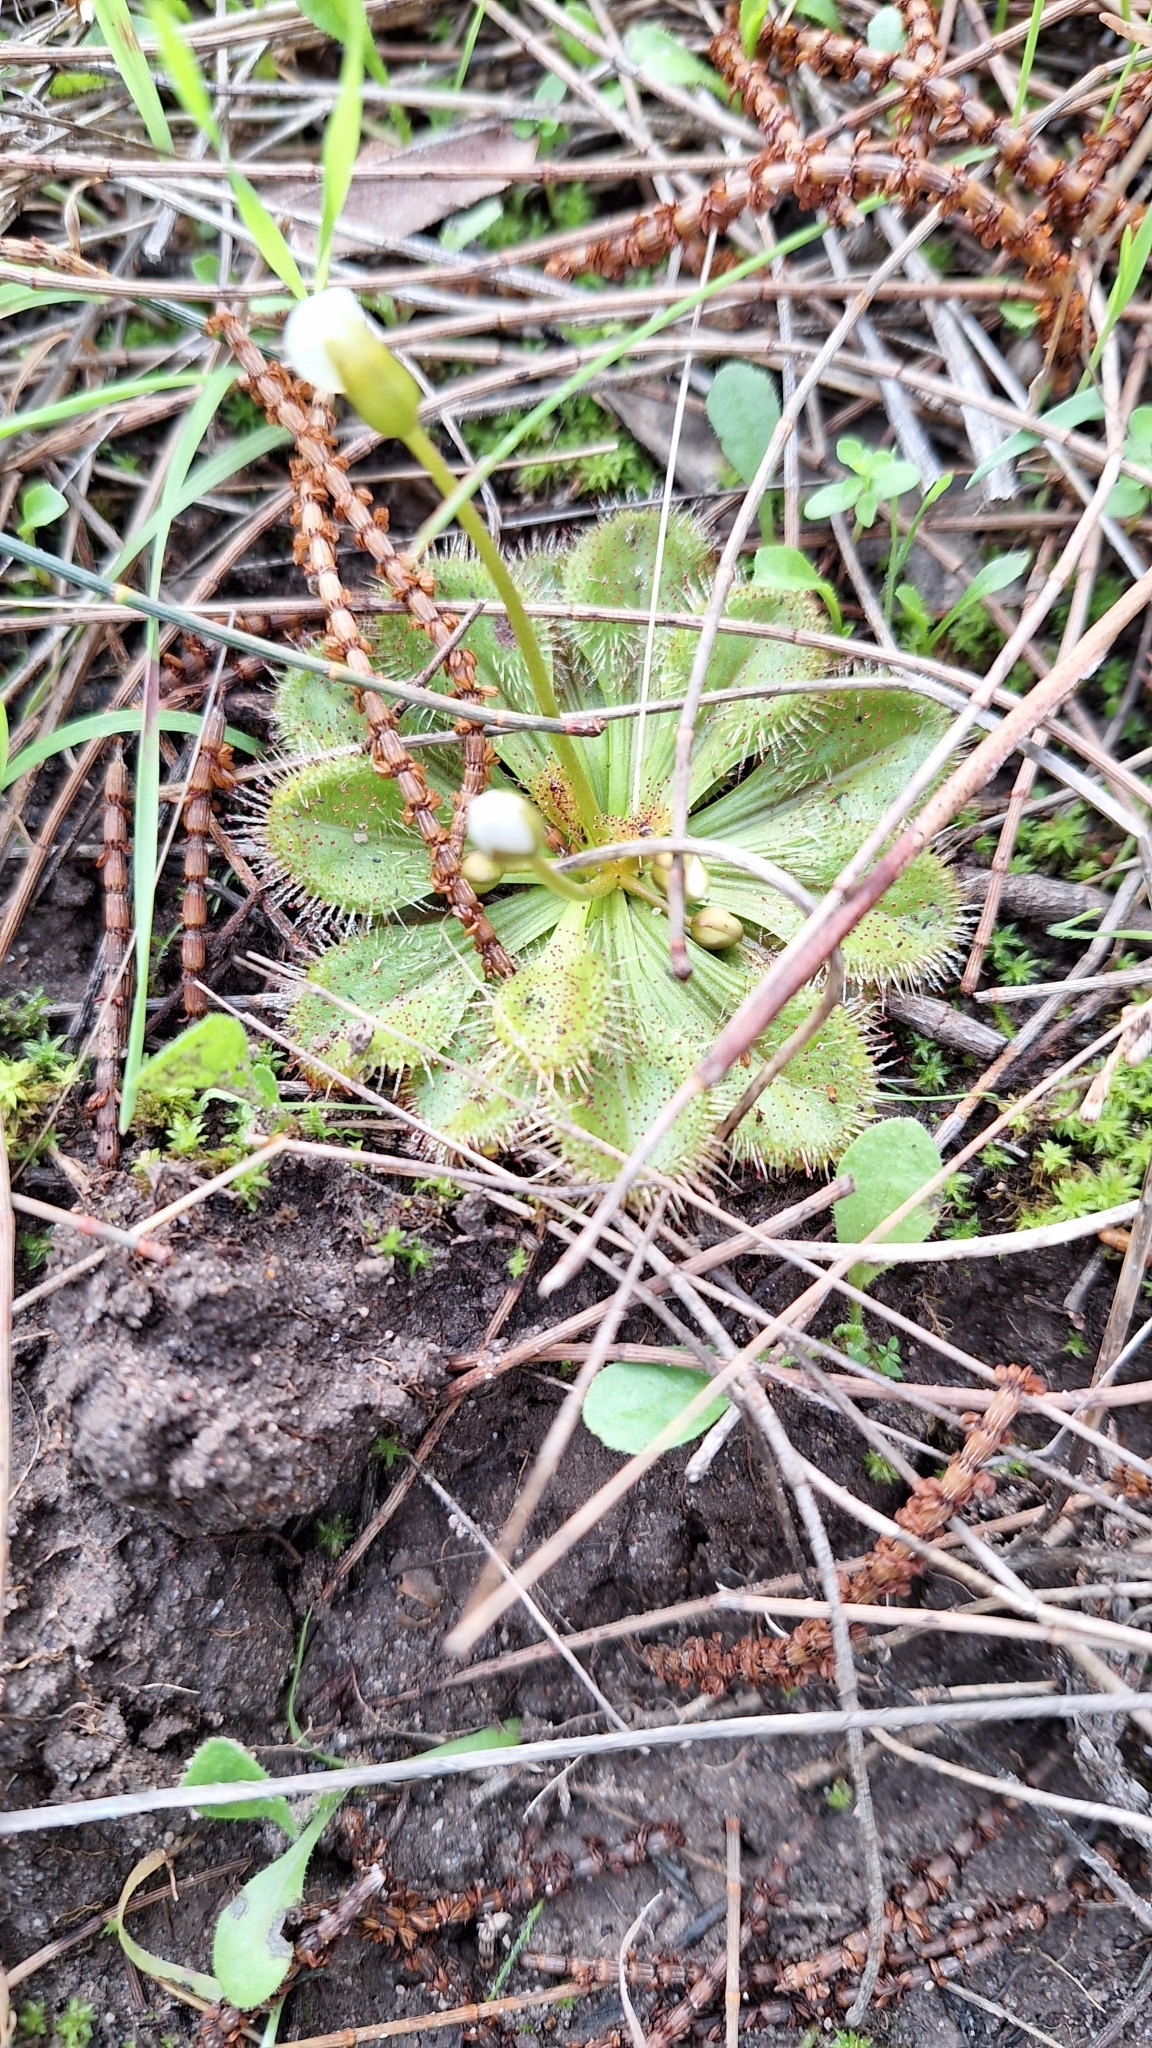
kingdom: Plantae
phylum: Tracheophyta
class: Magnoliopsida
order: Caryophyllales
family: Droseraceae
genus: Drosera
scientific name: Drosera whittakeri
